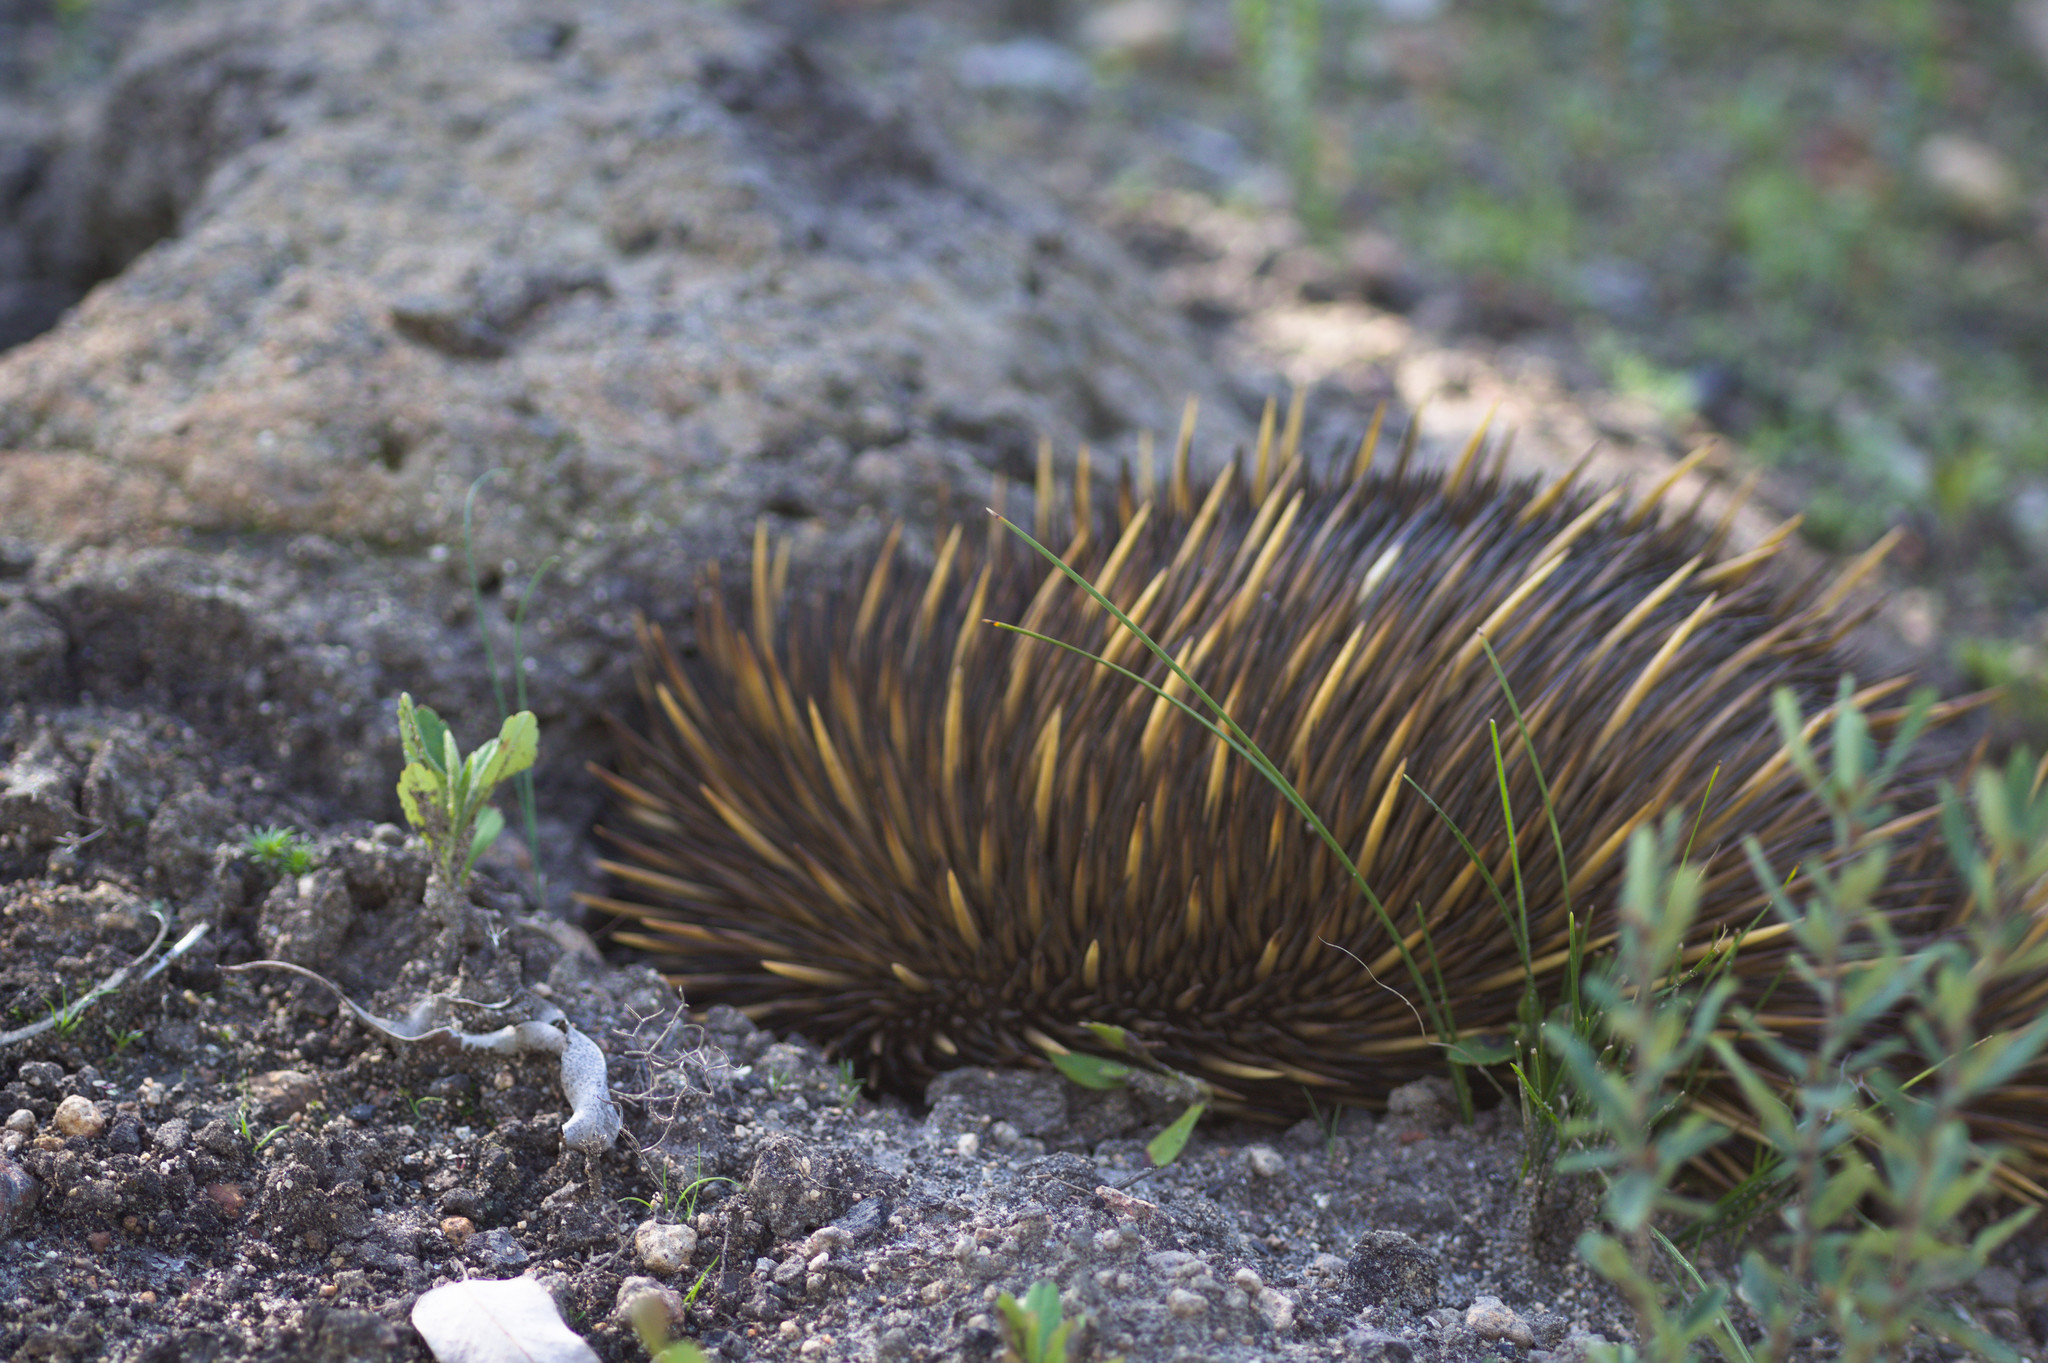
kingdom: Animalia
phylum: Chordata
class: Mammalia
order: Monotremata
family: Tachyglossidae
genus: Tachyglossus
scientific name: Tachyglossus aculeatus
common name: Short-beaked echidna
